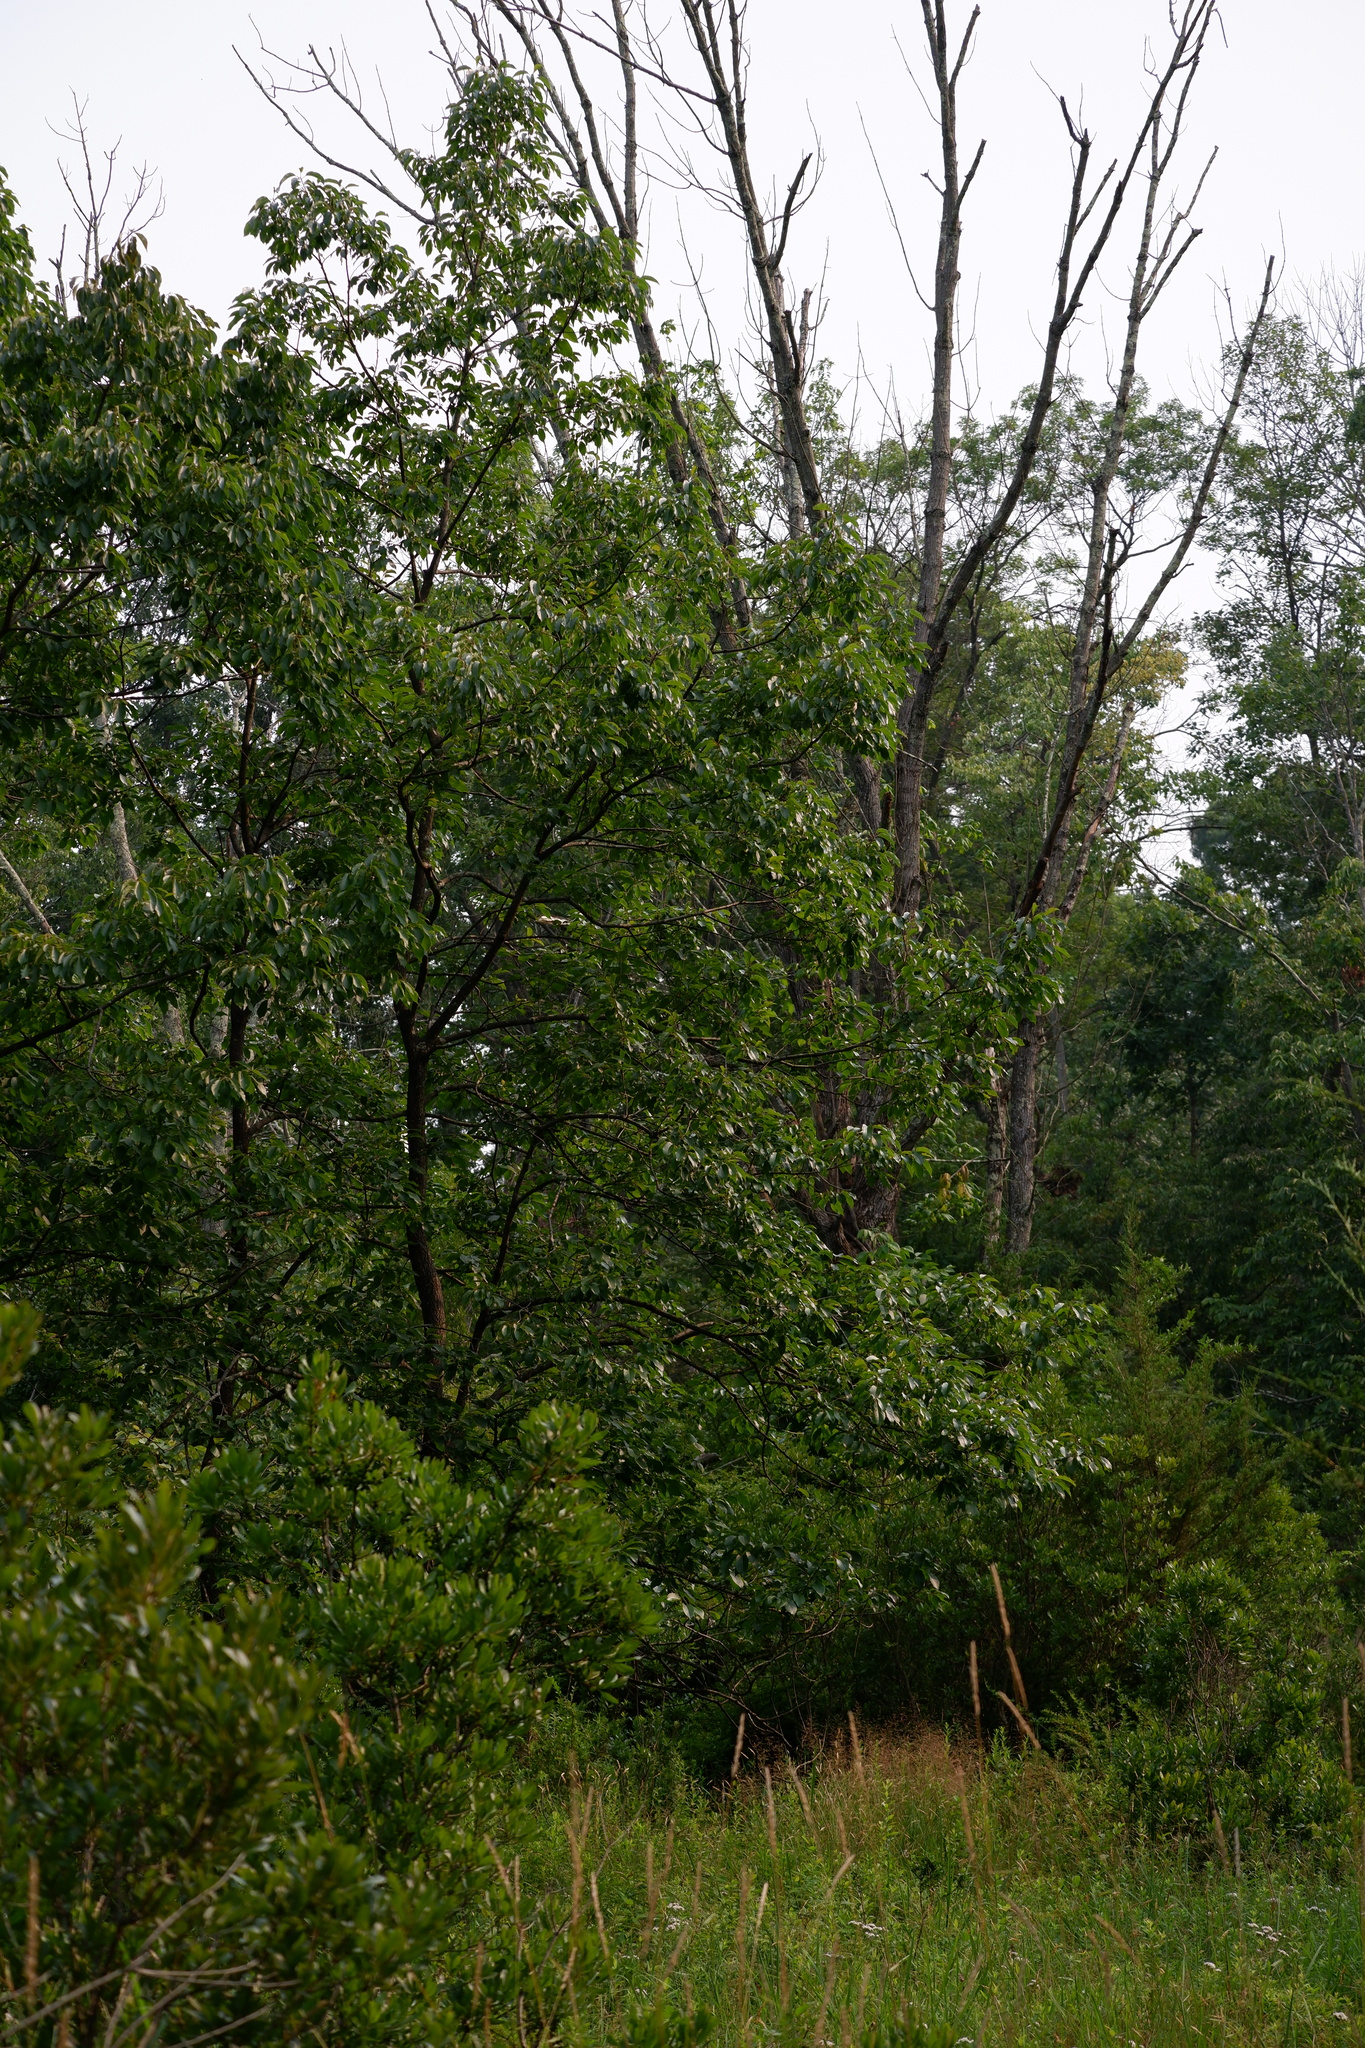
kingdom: Plantae
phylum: Tracheophyta
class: Magnoliopsida
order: Ericales
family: Ebenaceae
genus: Diospyros
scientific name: Diospyros virginiana
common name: Persimmon
